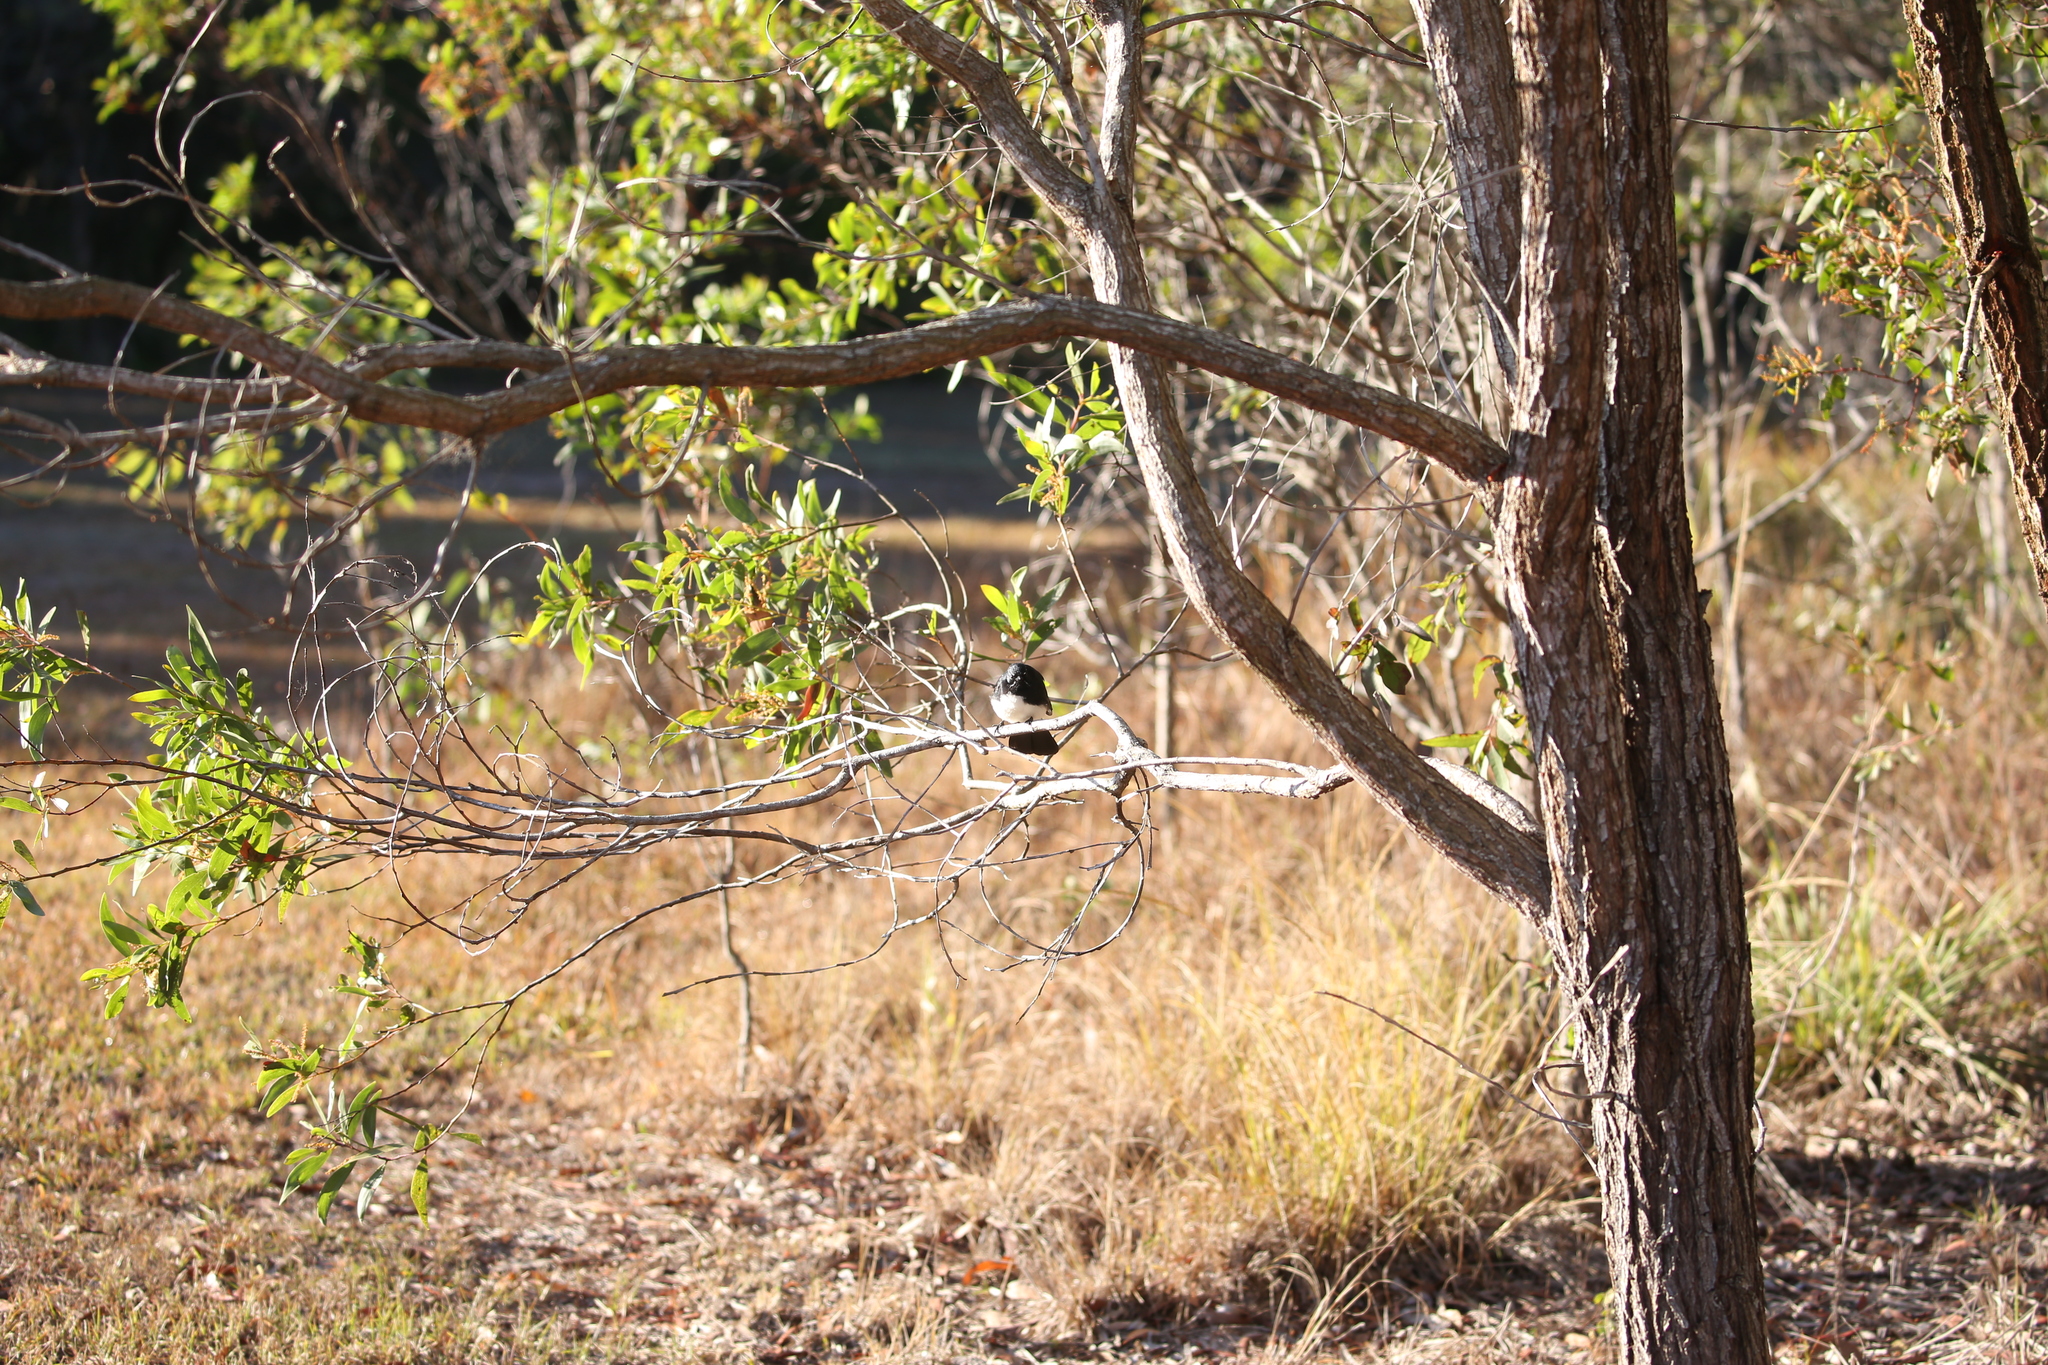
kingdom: Animalia
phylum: Chordata
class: Aves
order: Passeriformes
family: Rhipiduridae
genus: Rhipidura
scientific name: Rhipidura leucophrys
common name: Willie wagtail
